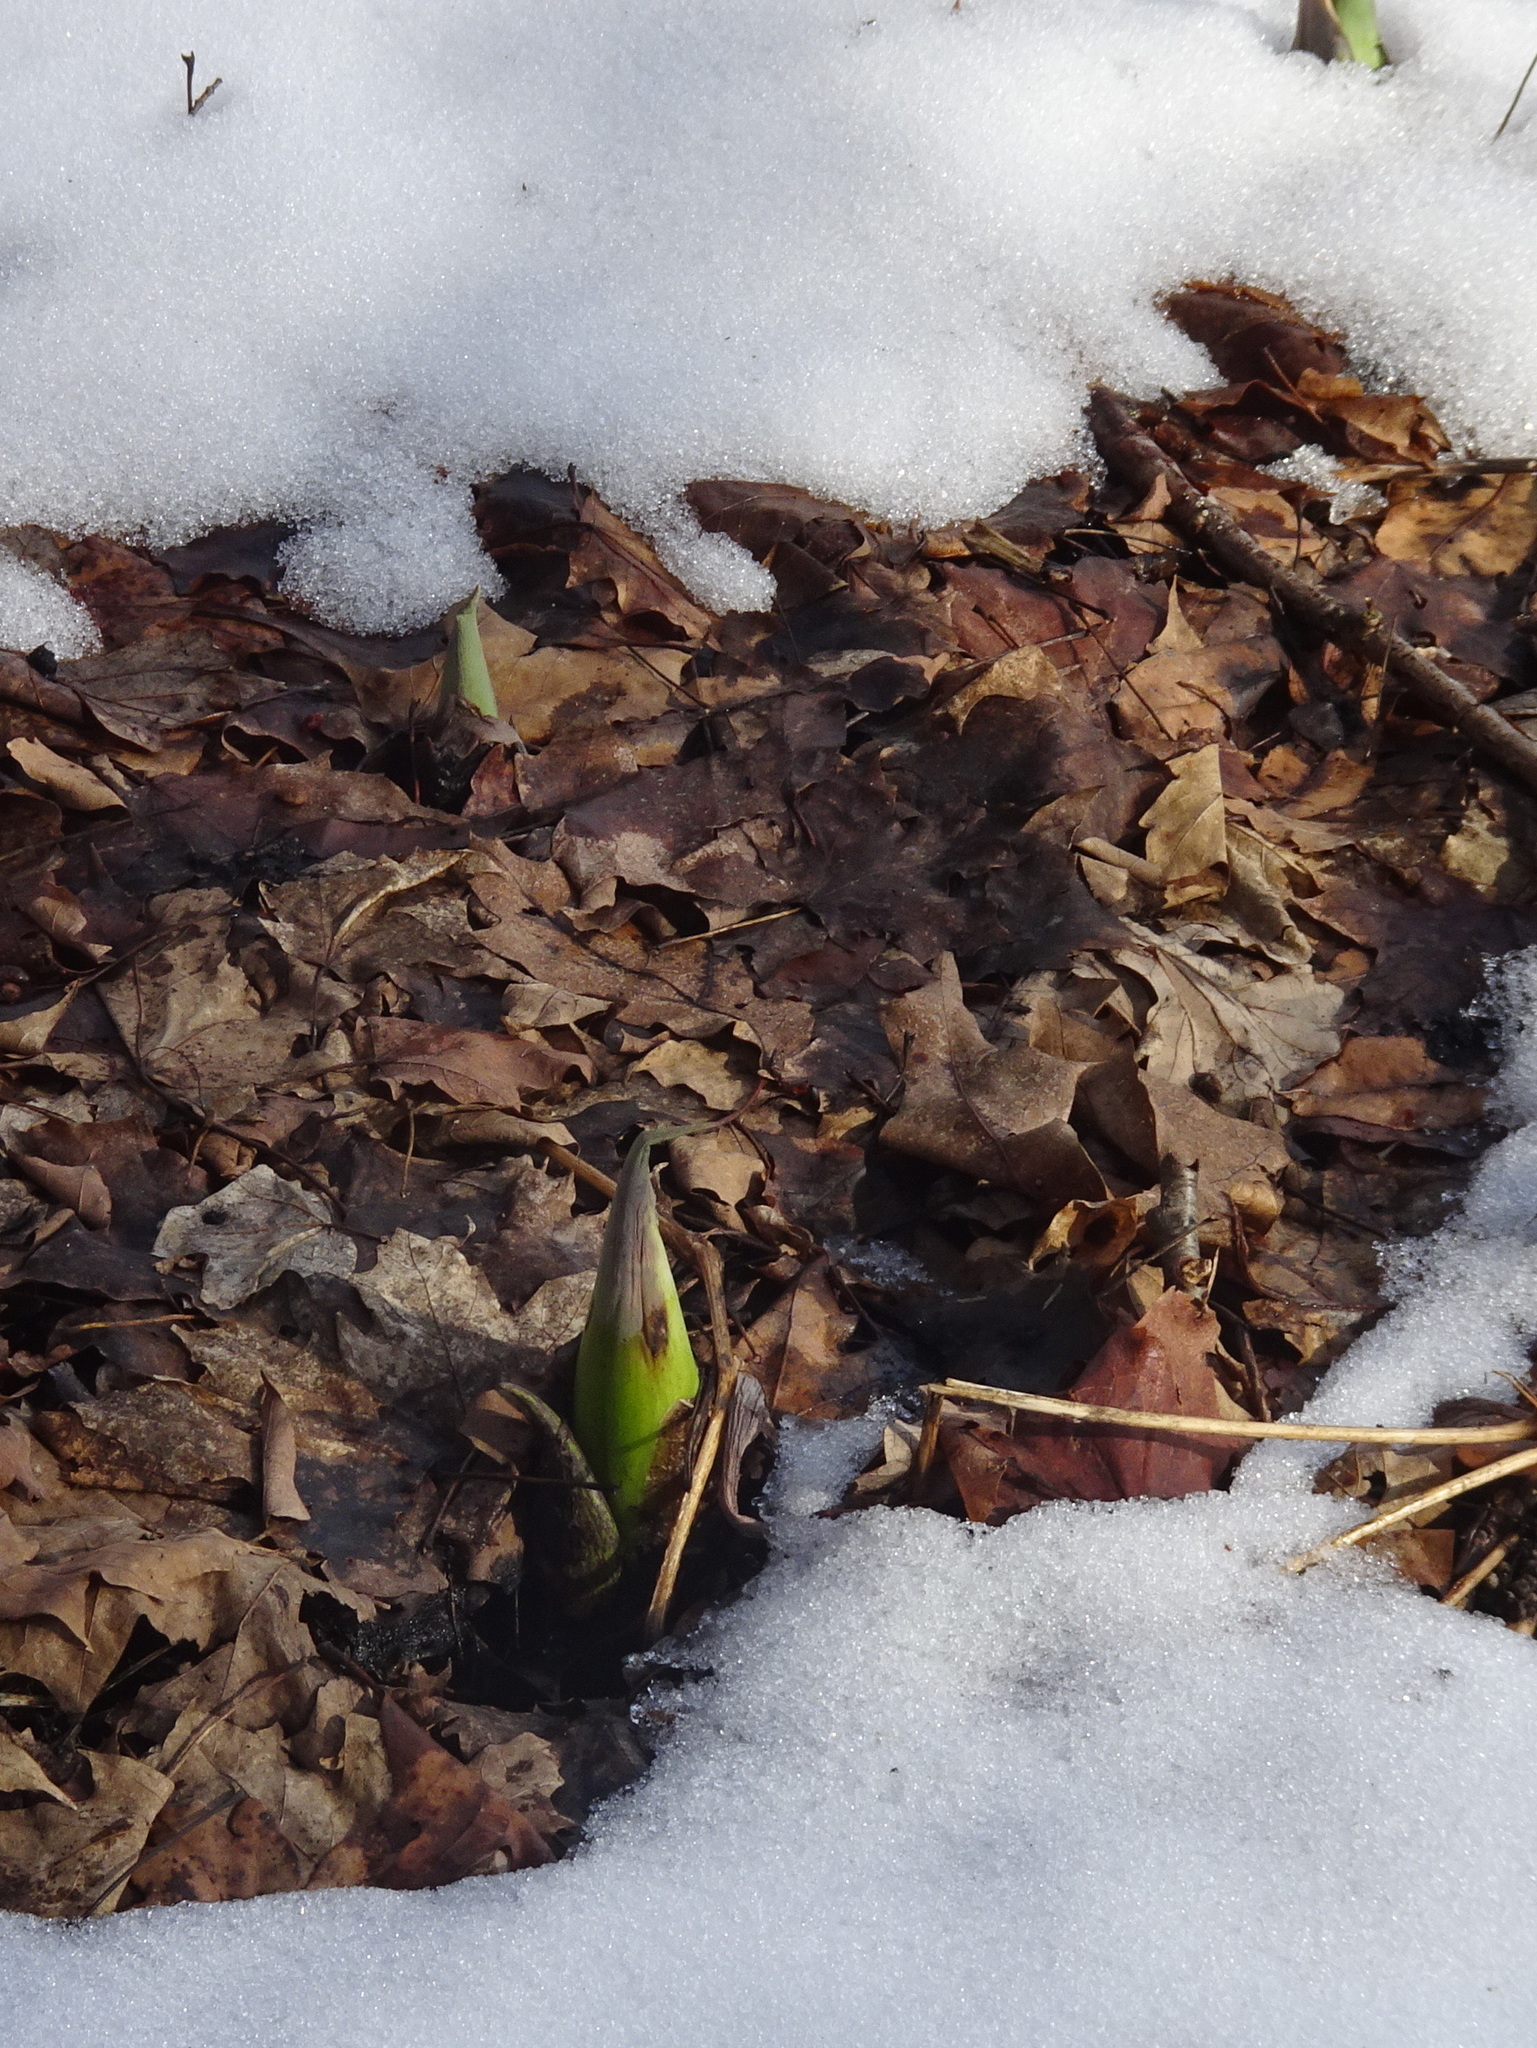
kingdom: Plantae
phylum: Tracheophyta
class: Liliopsida
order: Alismatales
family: Araceae
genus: Symplocarpus
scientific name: Symplocarpus foetidus
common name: Eastern skunk cabbage
